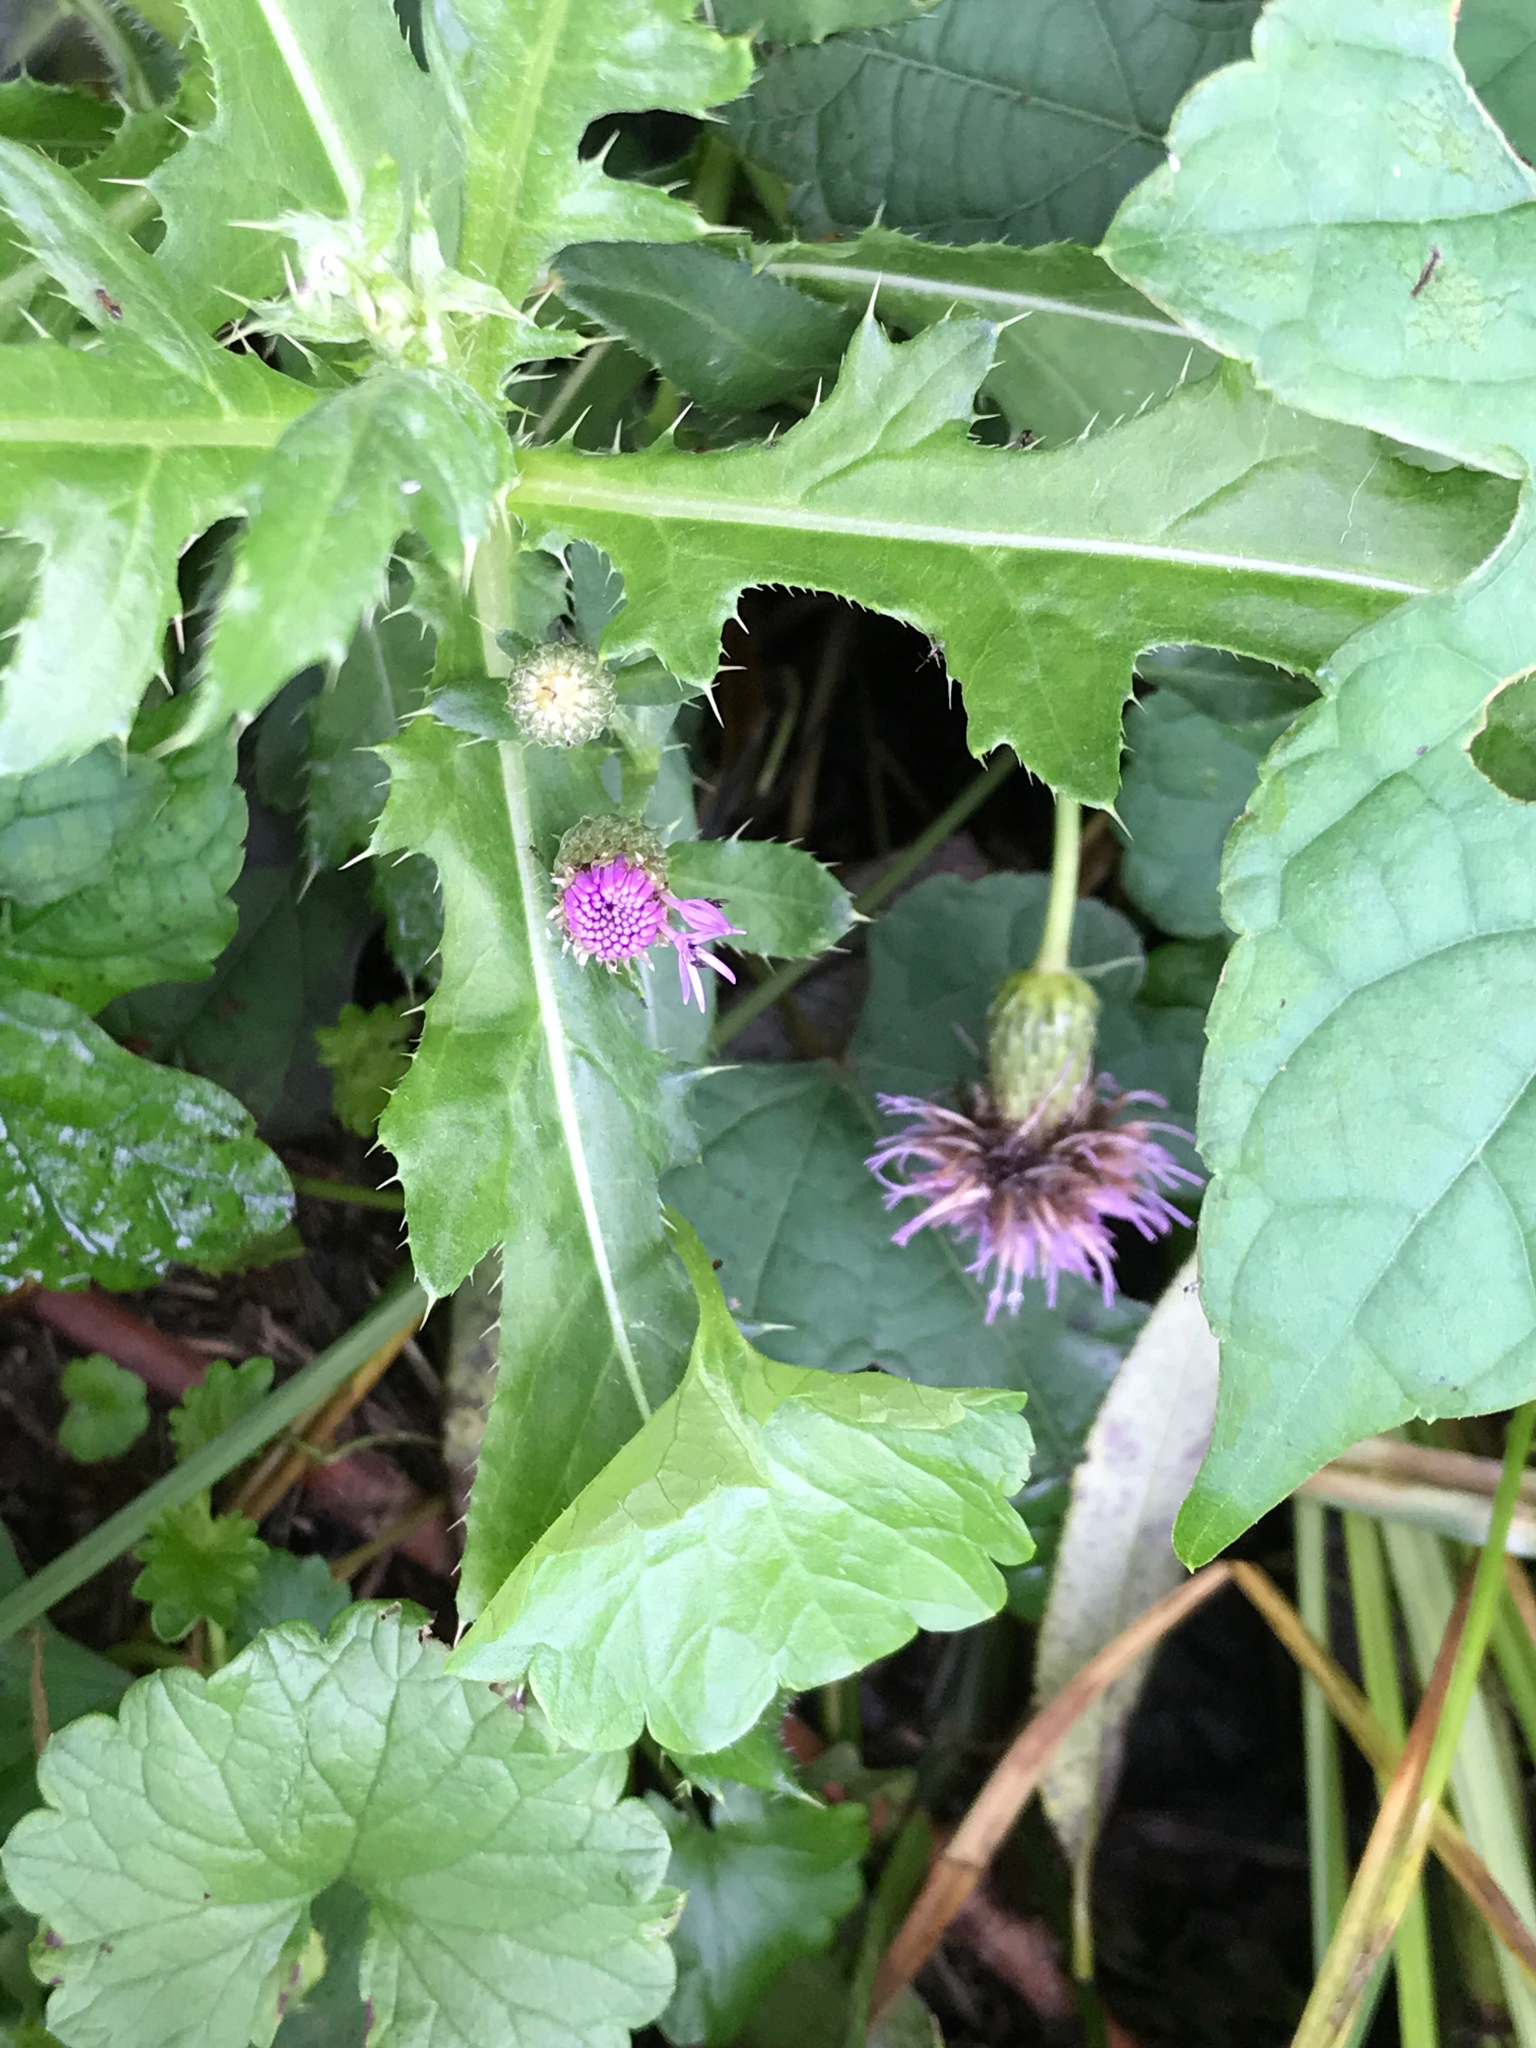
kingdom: Plantae
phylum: Tracheophyta
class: Magnoliopsida
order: Asterales
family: Asteraceae
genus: Cirsium
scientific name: Cirsium arvense
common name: Creeping thistle
